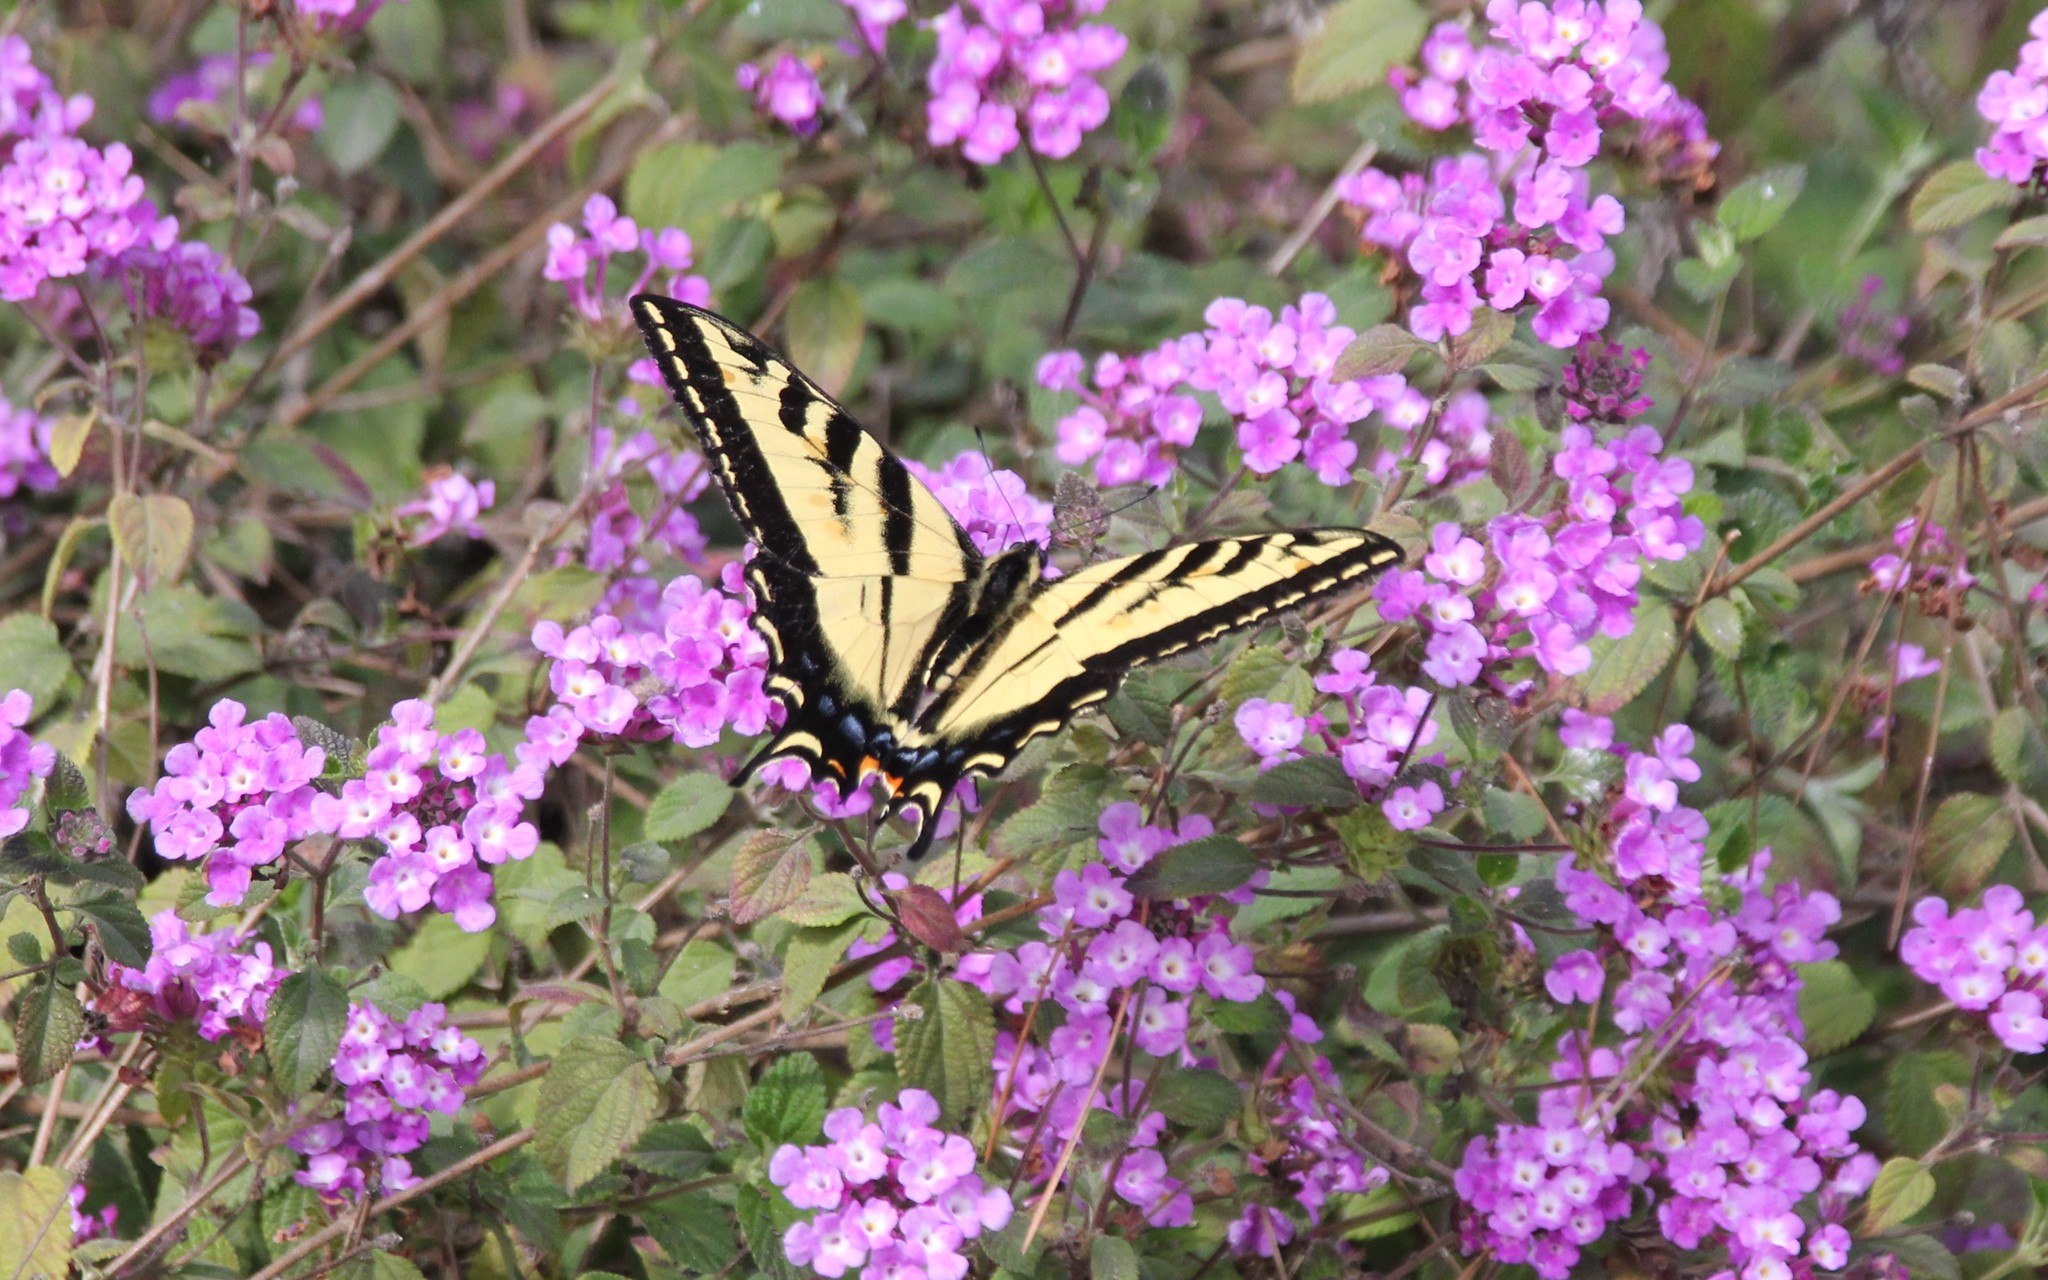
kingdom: Animalia
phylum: Arthropoda
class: Insecta
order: Lepidoptera
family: Papilionidae
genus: Papilio
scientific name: Papilio rutulus
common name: Western tiger swallowtail
